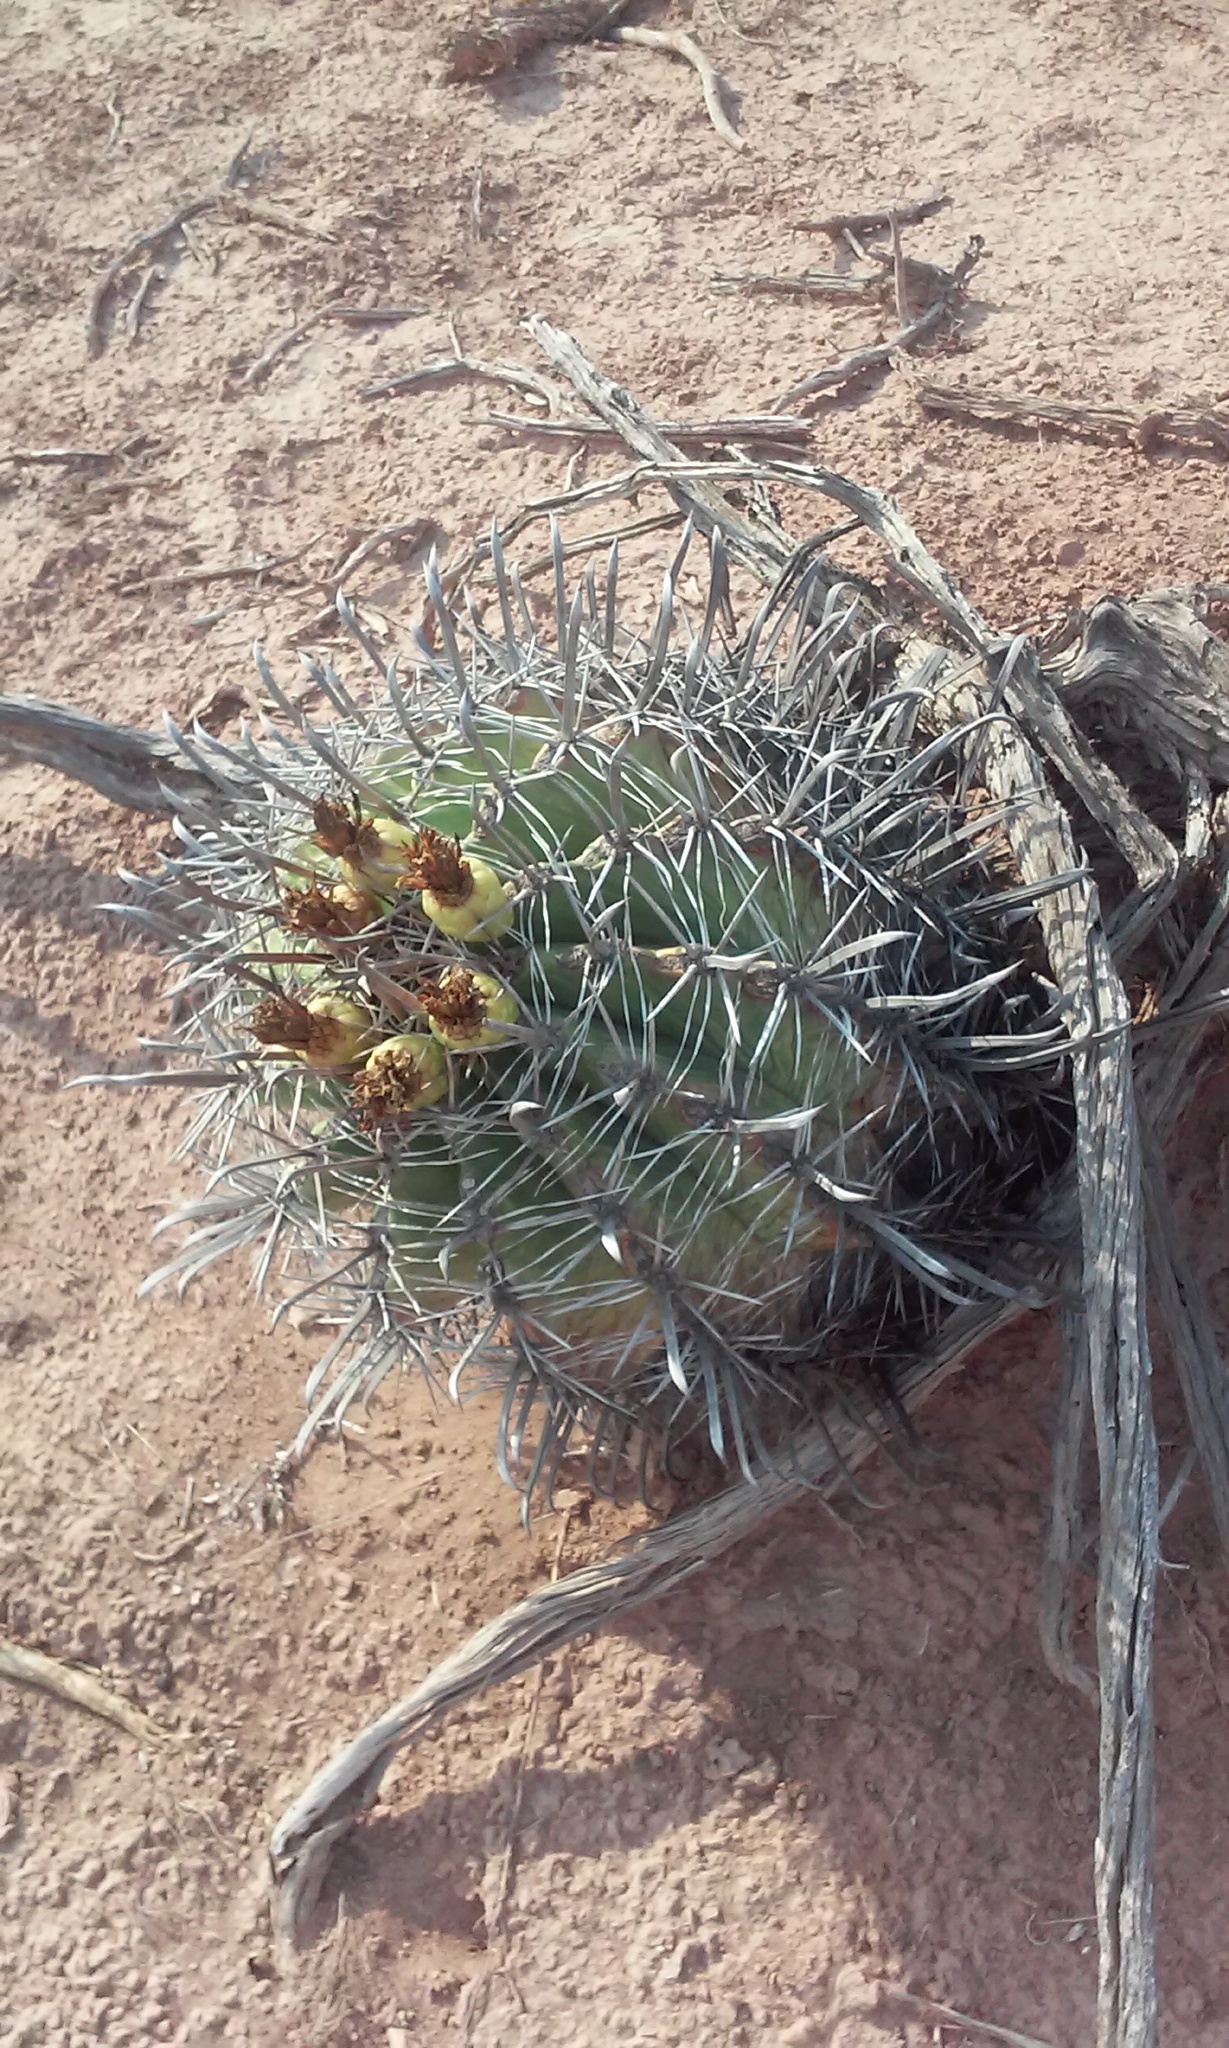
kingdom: Plantae
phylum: Tracheophyta
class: Magnoliopsida
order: Caryophyllales
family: Cactaceae
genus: Ferocactus
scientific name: Ferocactus wislizeni
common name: Candy barrel cactus
